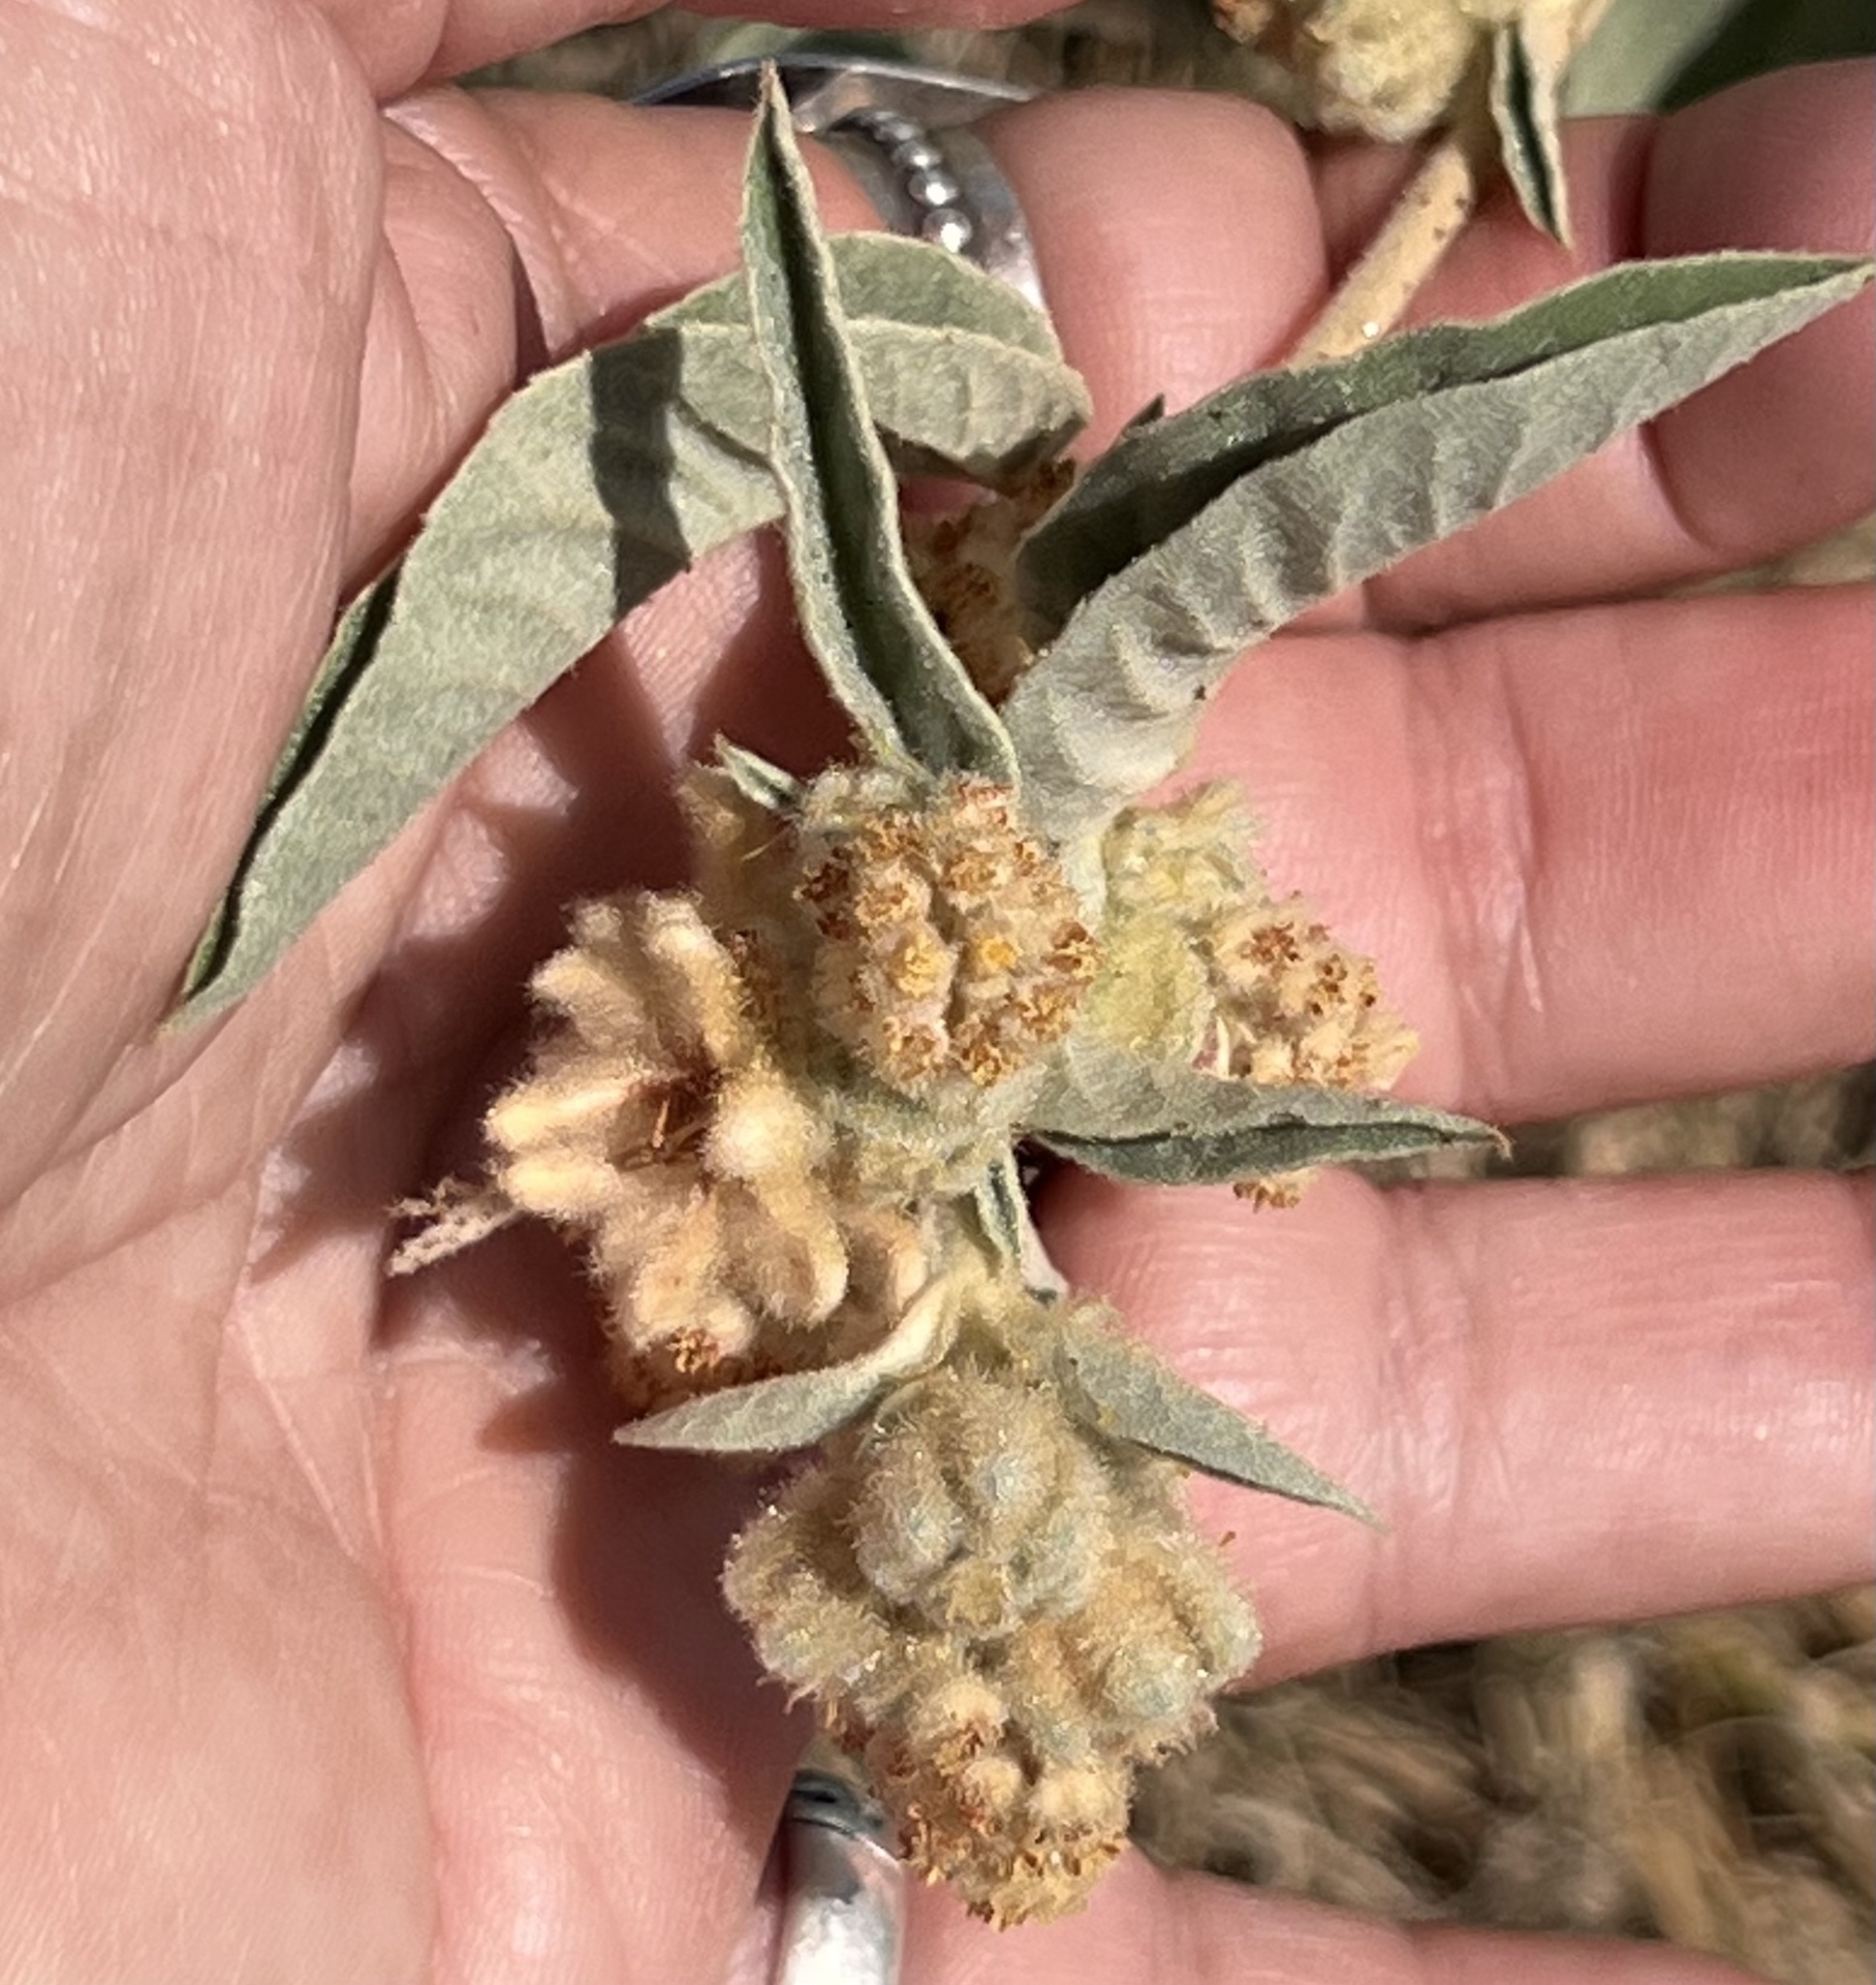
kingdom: Plantae
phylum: Tracheophyta
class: Magnoliopsida
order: Malpighiales
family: Euphorbiaceae
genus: Croton
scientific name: Croton lindheimeri
